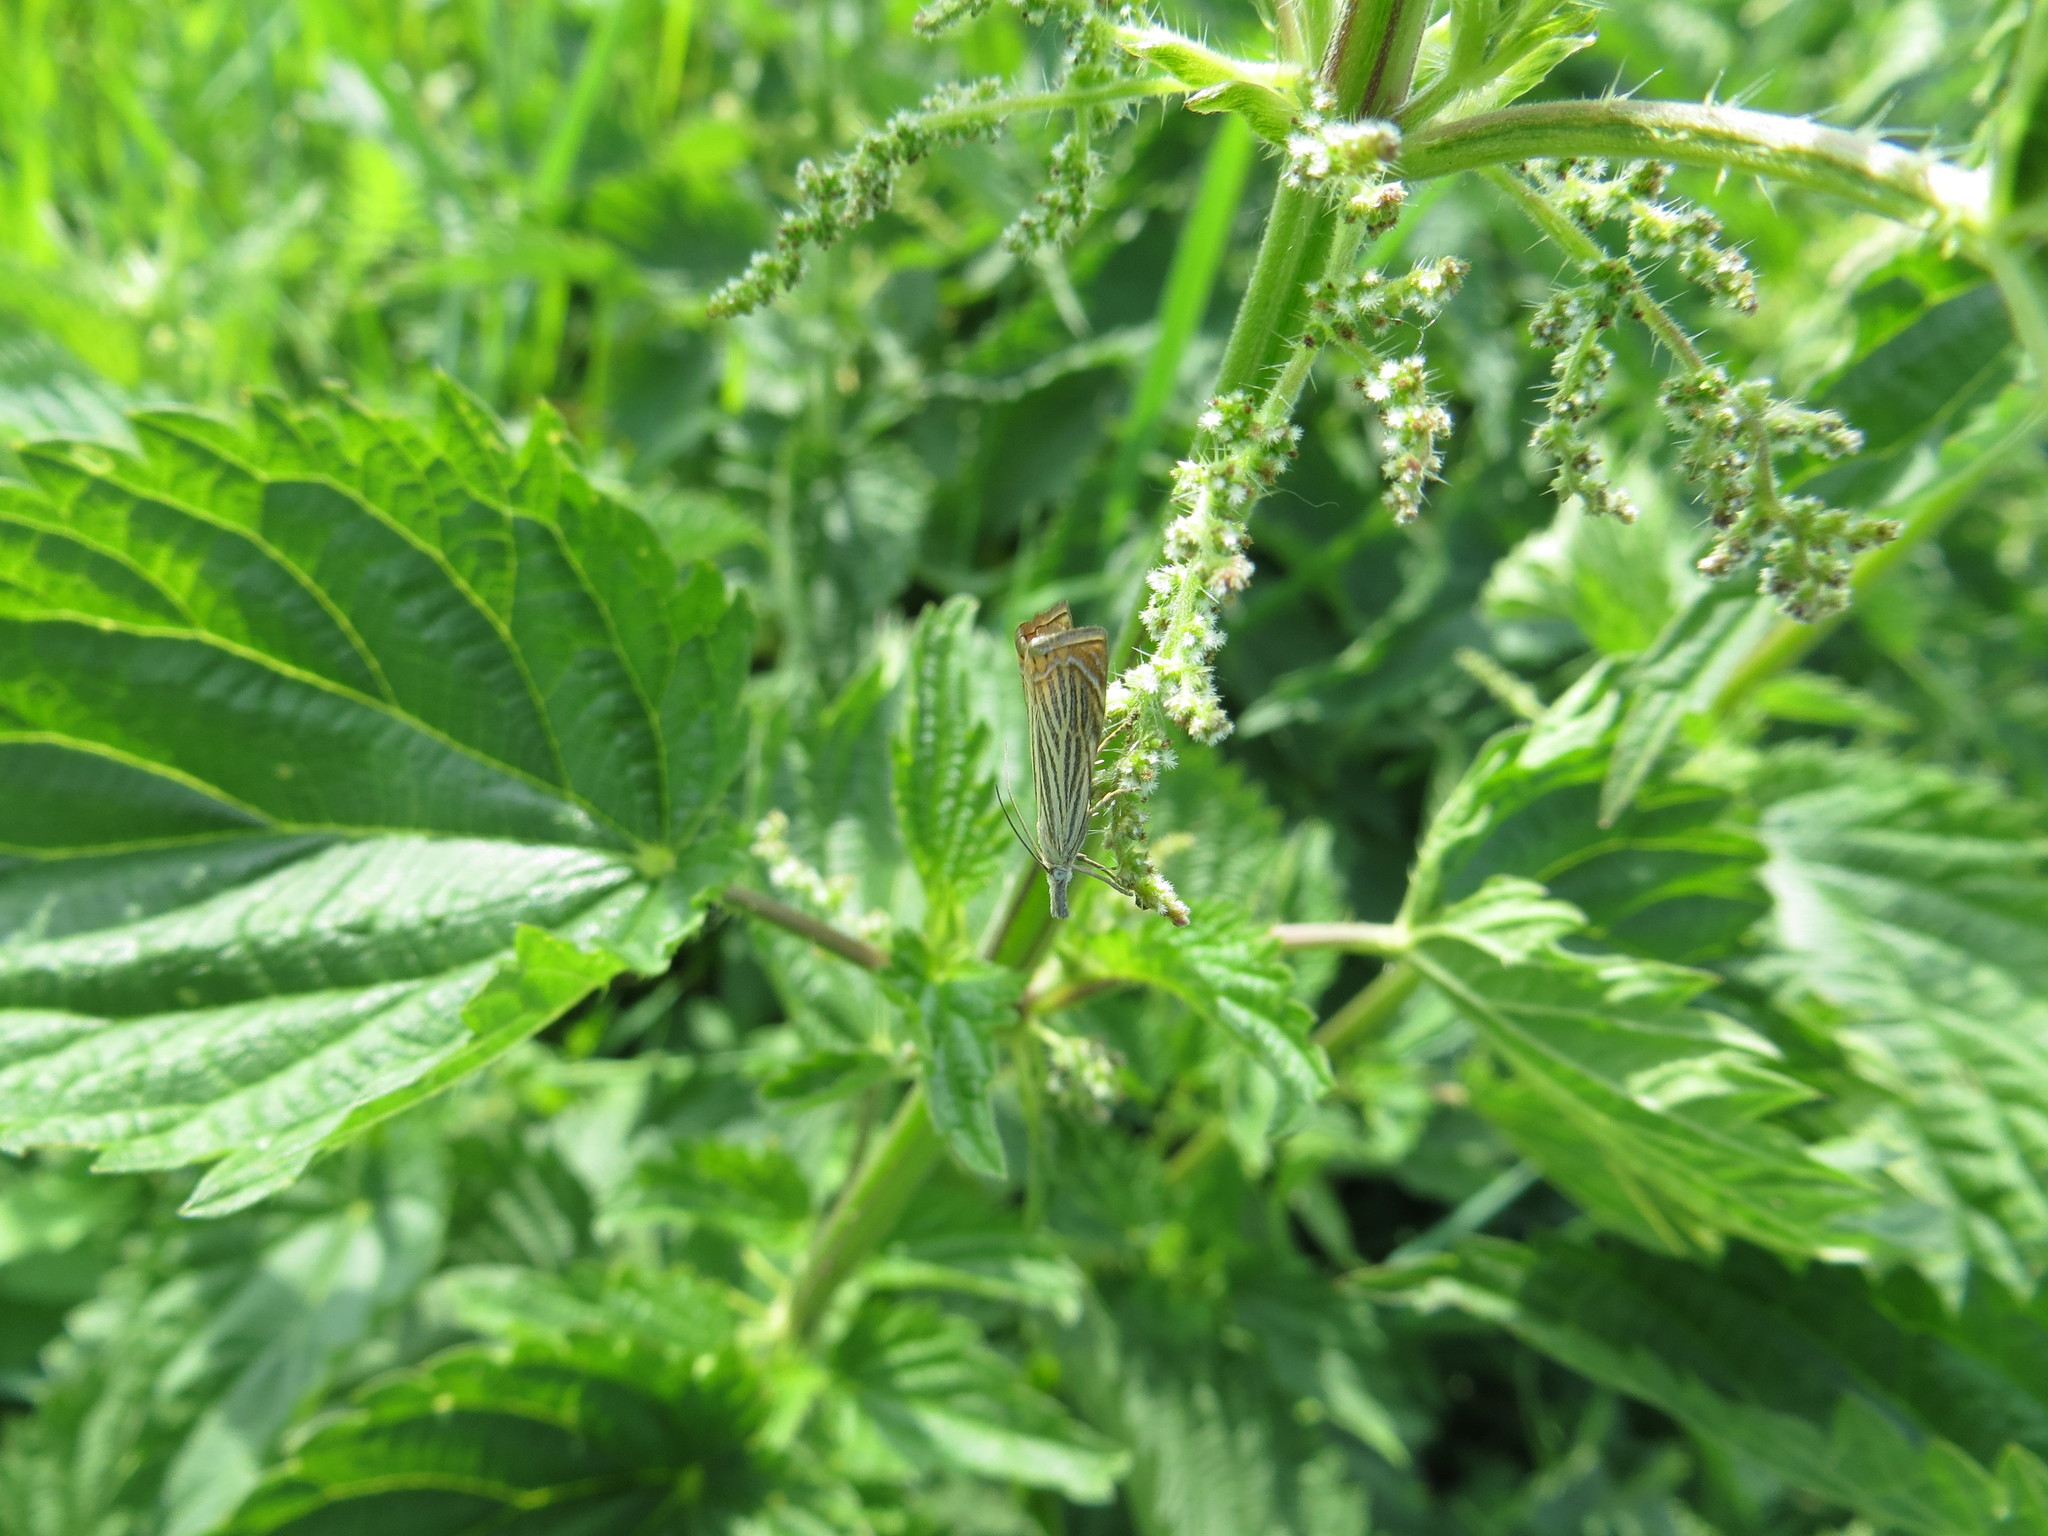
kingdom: Animalia
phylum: Arthropoda
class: Insecta
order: Lepidoptera
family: Crambidae
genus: Chrysoteuchia
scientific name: Chrysoteuchia culmella
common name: Garden grass-veneer
